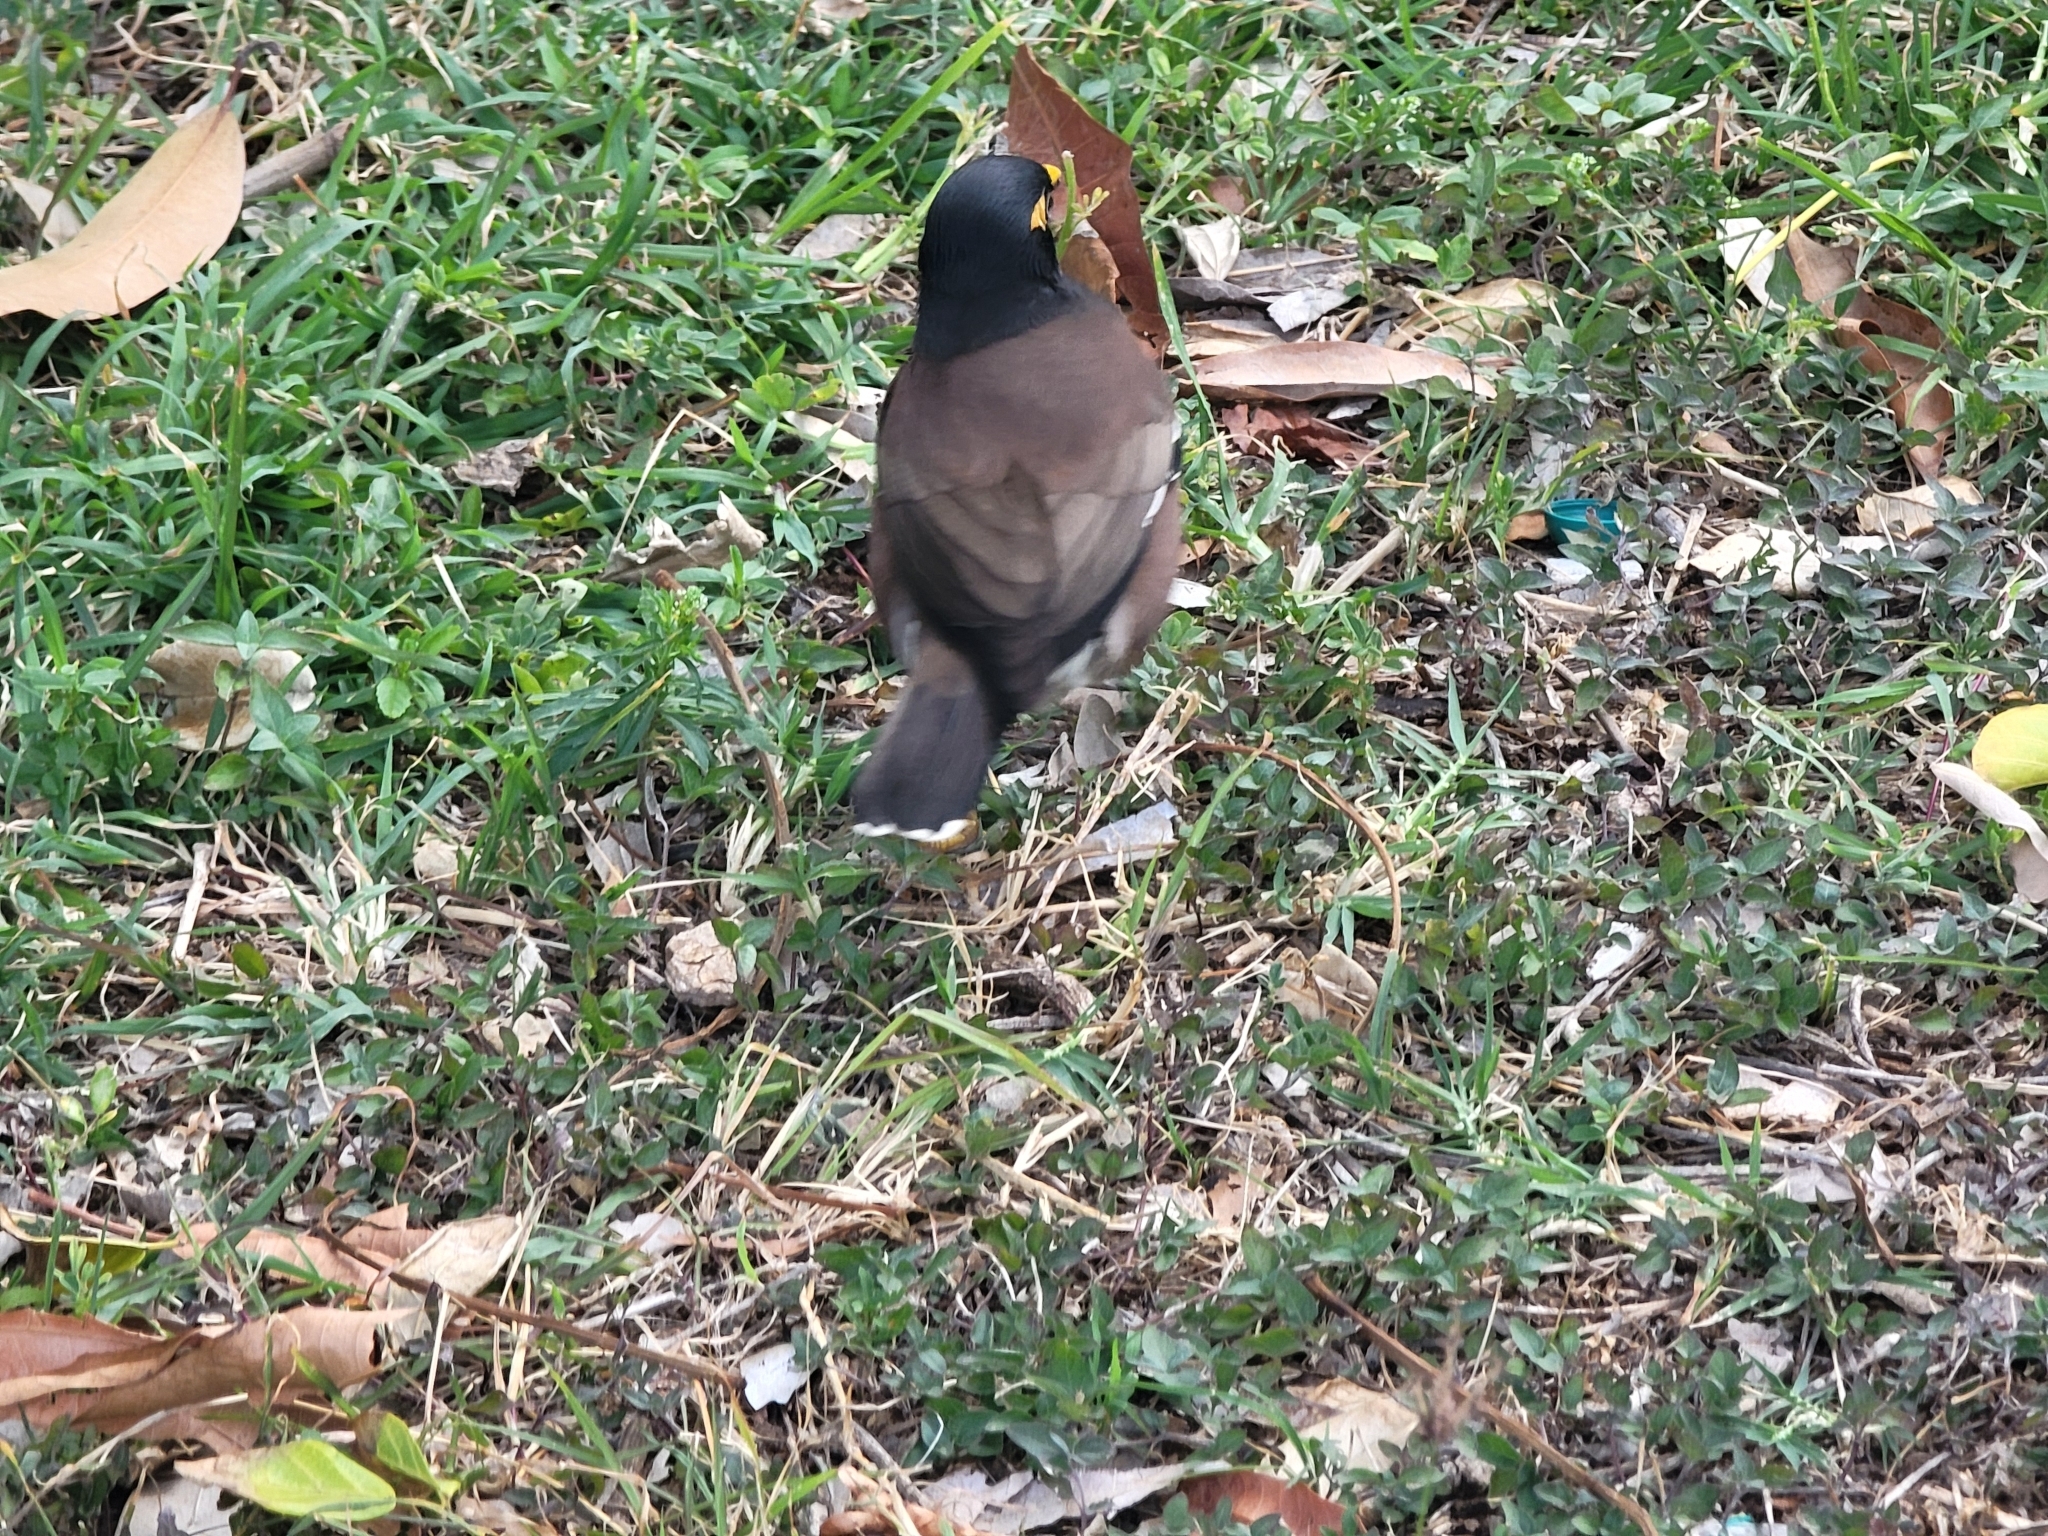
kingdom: Animalia
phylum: Chordata
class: Aves
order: Passeriformes
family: Sturnidae
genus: Acridotheres
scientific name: Acridotheres tristis
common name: Common myna
